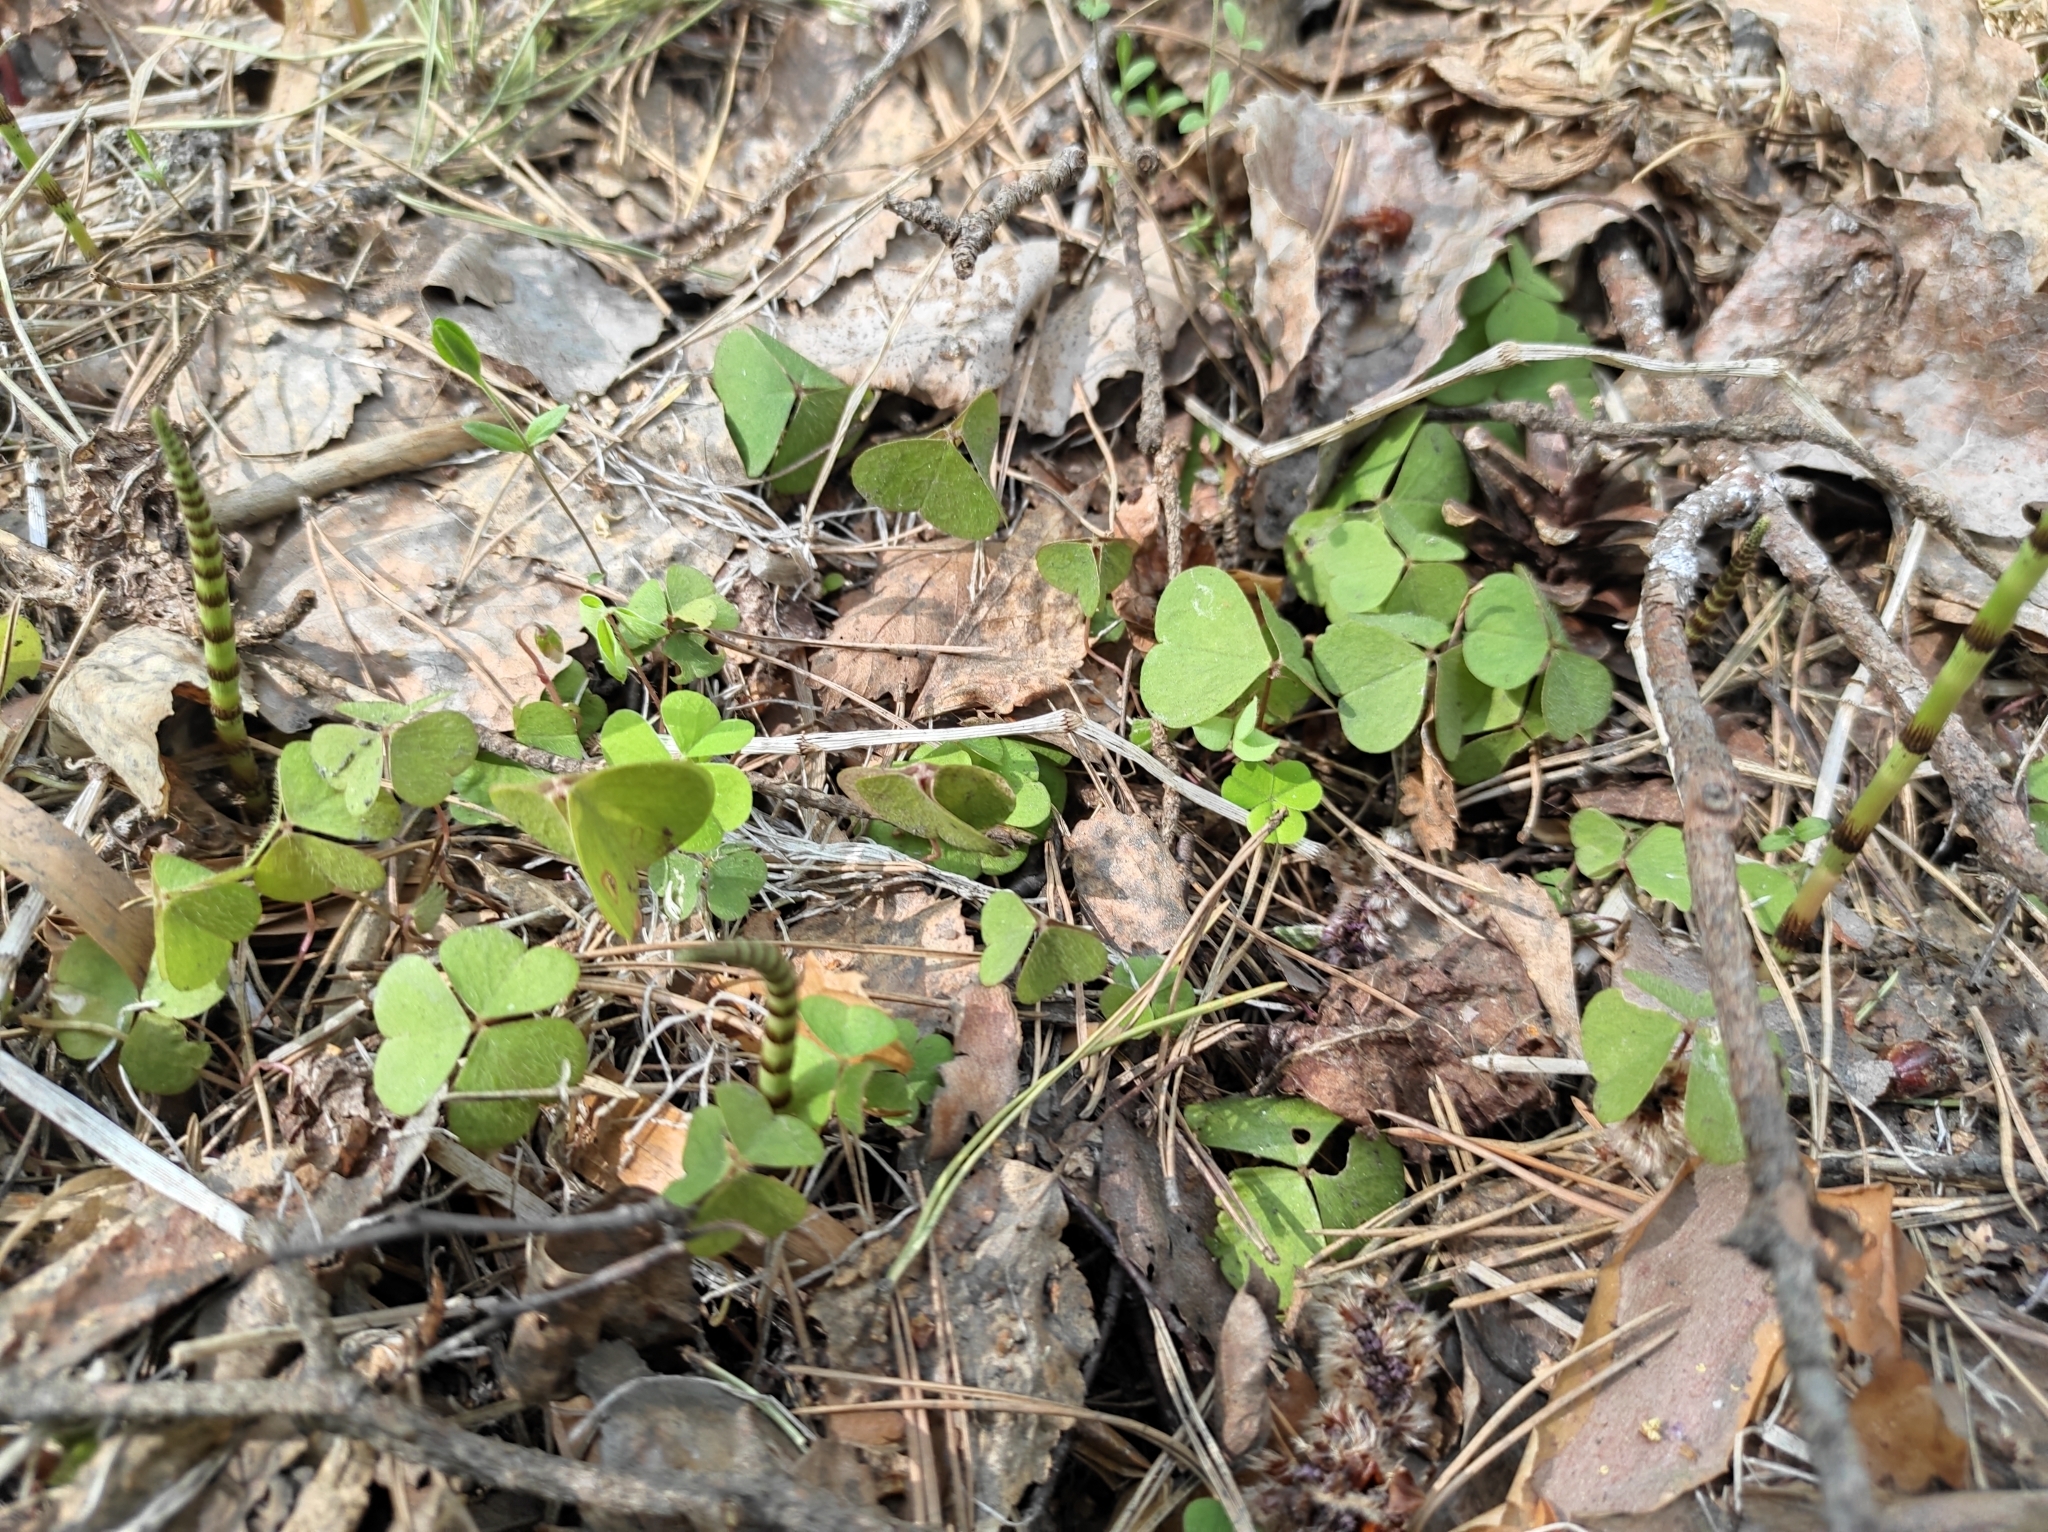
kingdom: Plantae
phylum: Tracheophyta
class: Magnoliopsida
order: Oxalidales
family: Oxalidaceae
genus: Oxalis
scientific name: Oxalis acetosella
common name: Wood-sorrel
